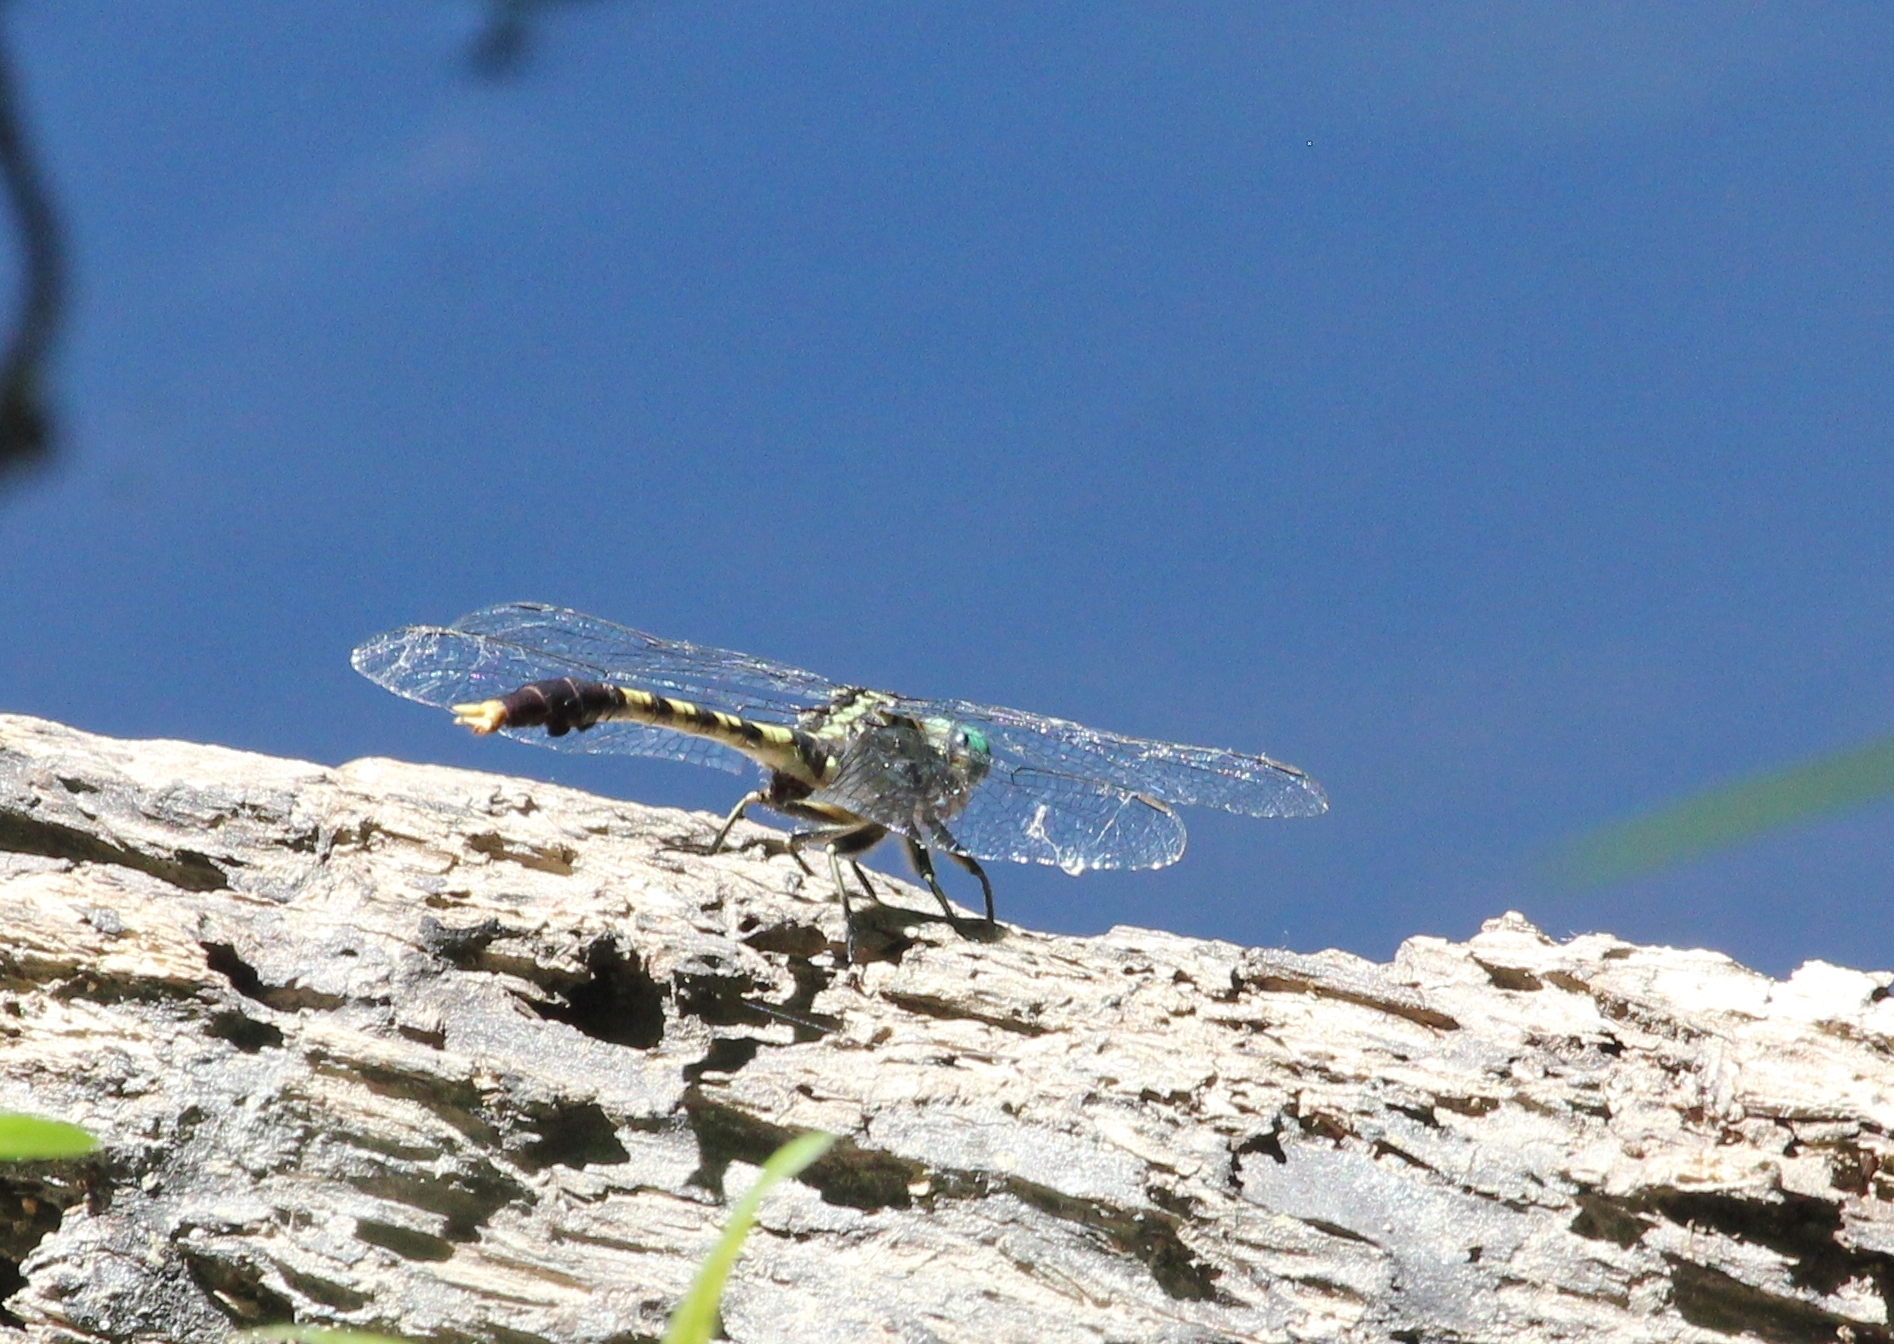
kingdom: Animalia
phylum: Arthropoda
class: Insecta
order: Odonata
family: Gomphidae
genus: Arigomphus
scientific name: Arigomphus maxwelli
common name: Bayou clubtail
